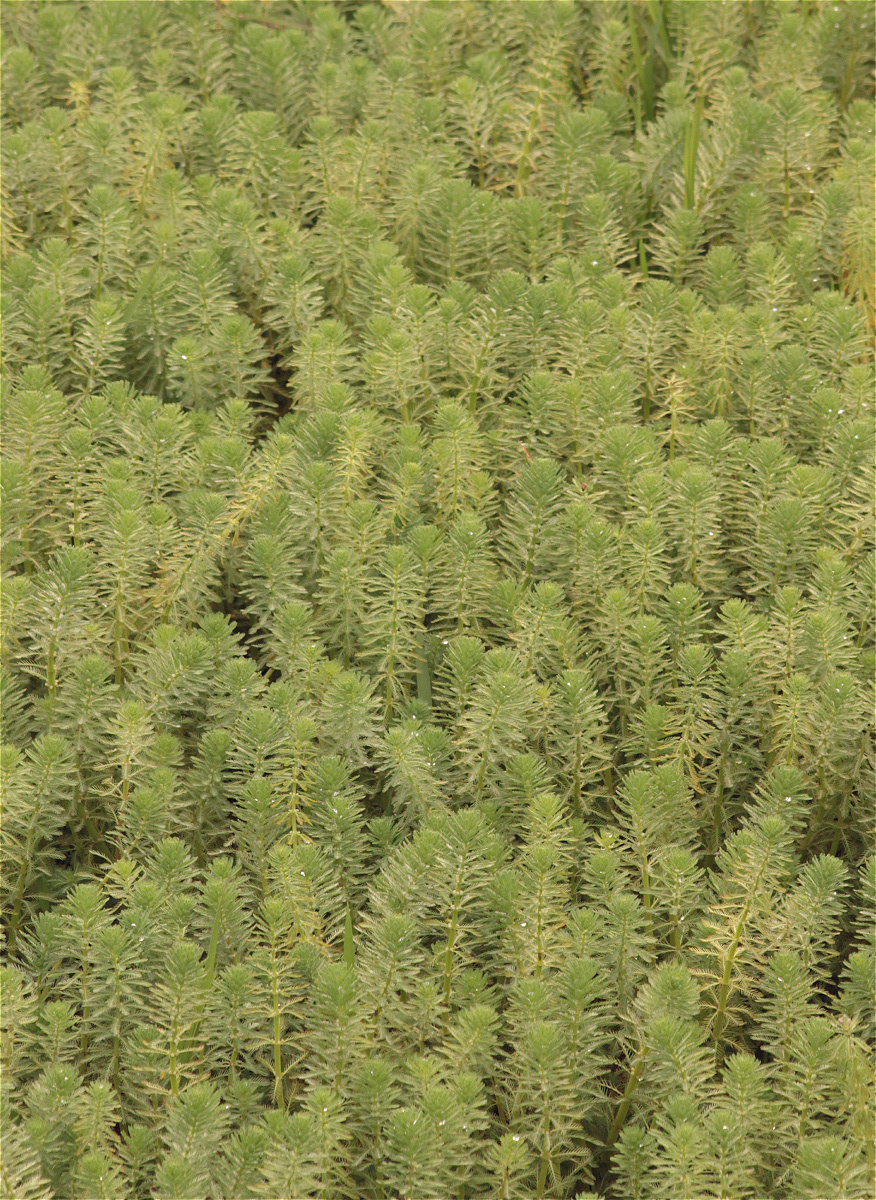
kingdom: Plantae
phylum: Tracheophyta
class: Magnoliopsida
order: Saxifragales
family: Haloragaceae
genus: Myriophyllum
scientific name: Myriophyllum aquaticum
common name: Parrot's feather
